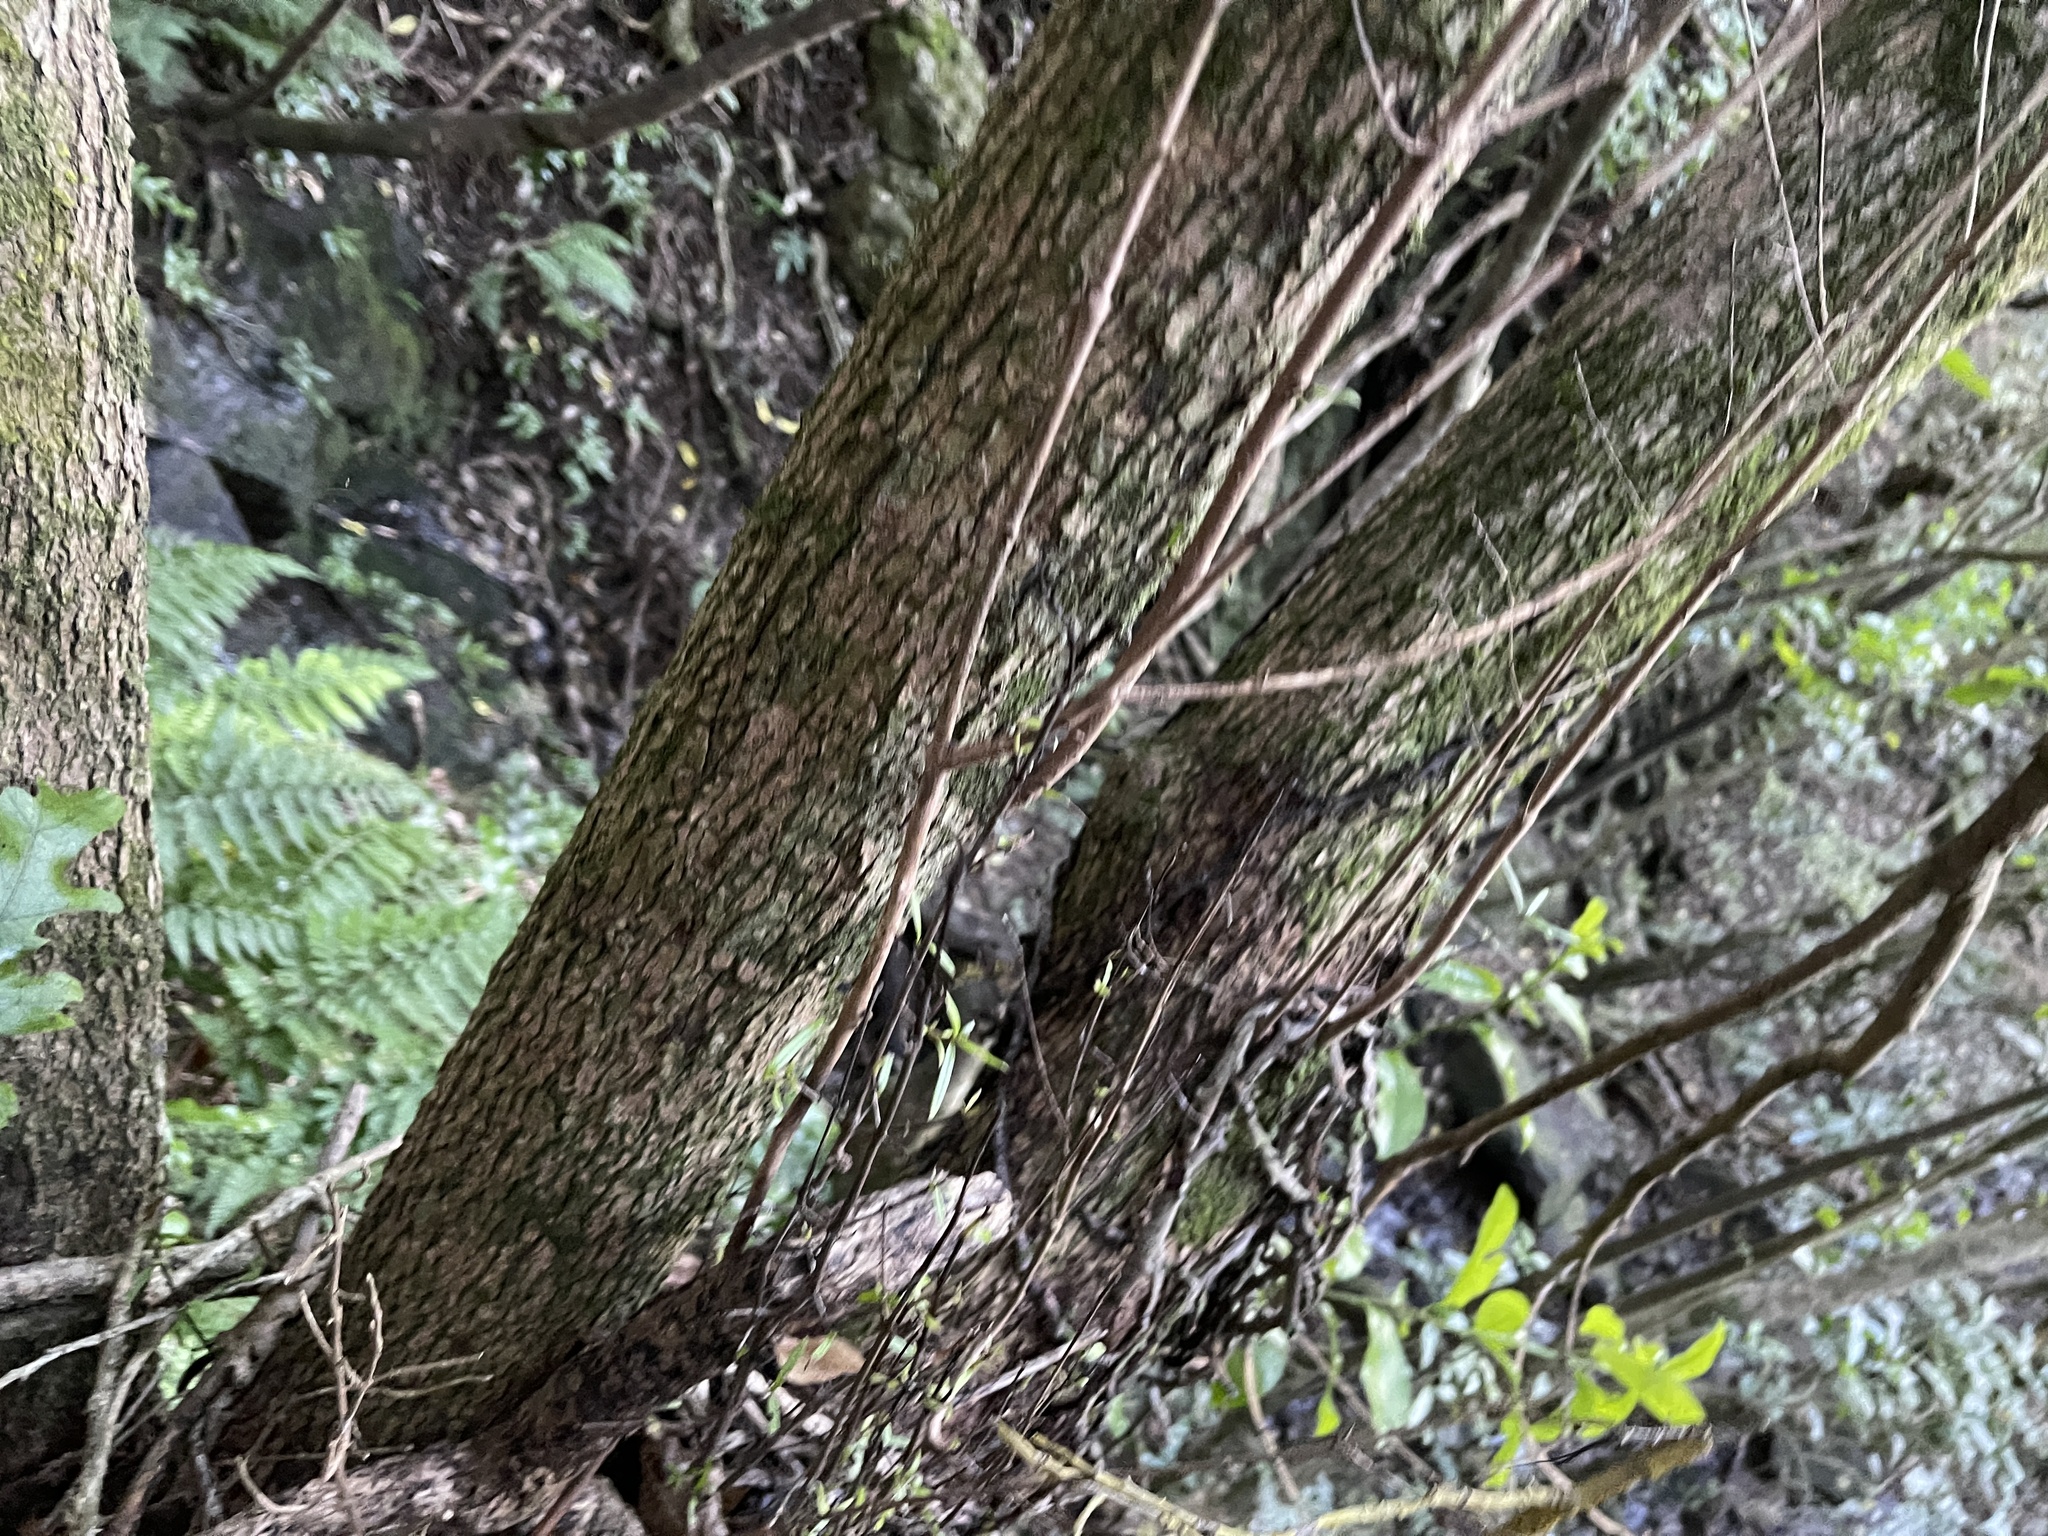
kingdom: Plantae
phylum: Tracheophyta
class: Magnoliopsida
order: Gentianales
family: Rubiaceae
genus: Coprosma
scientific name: Coprosma linariifolia
